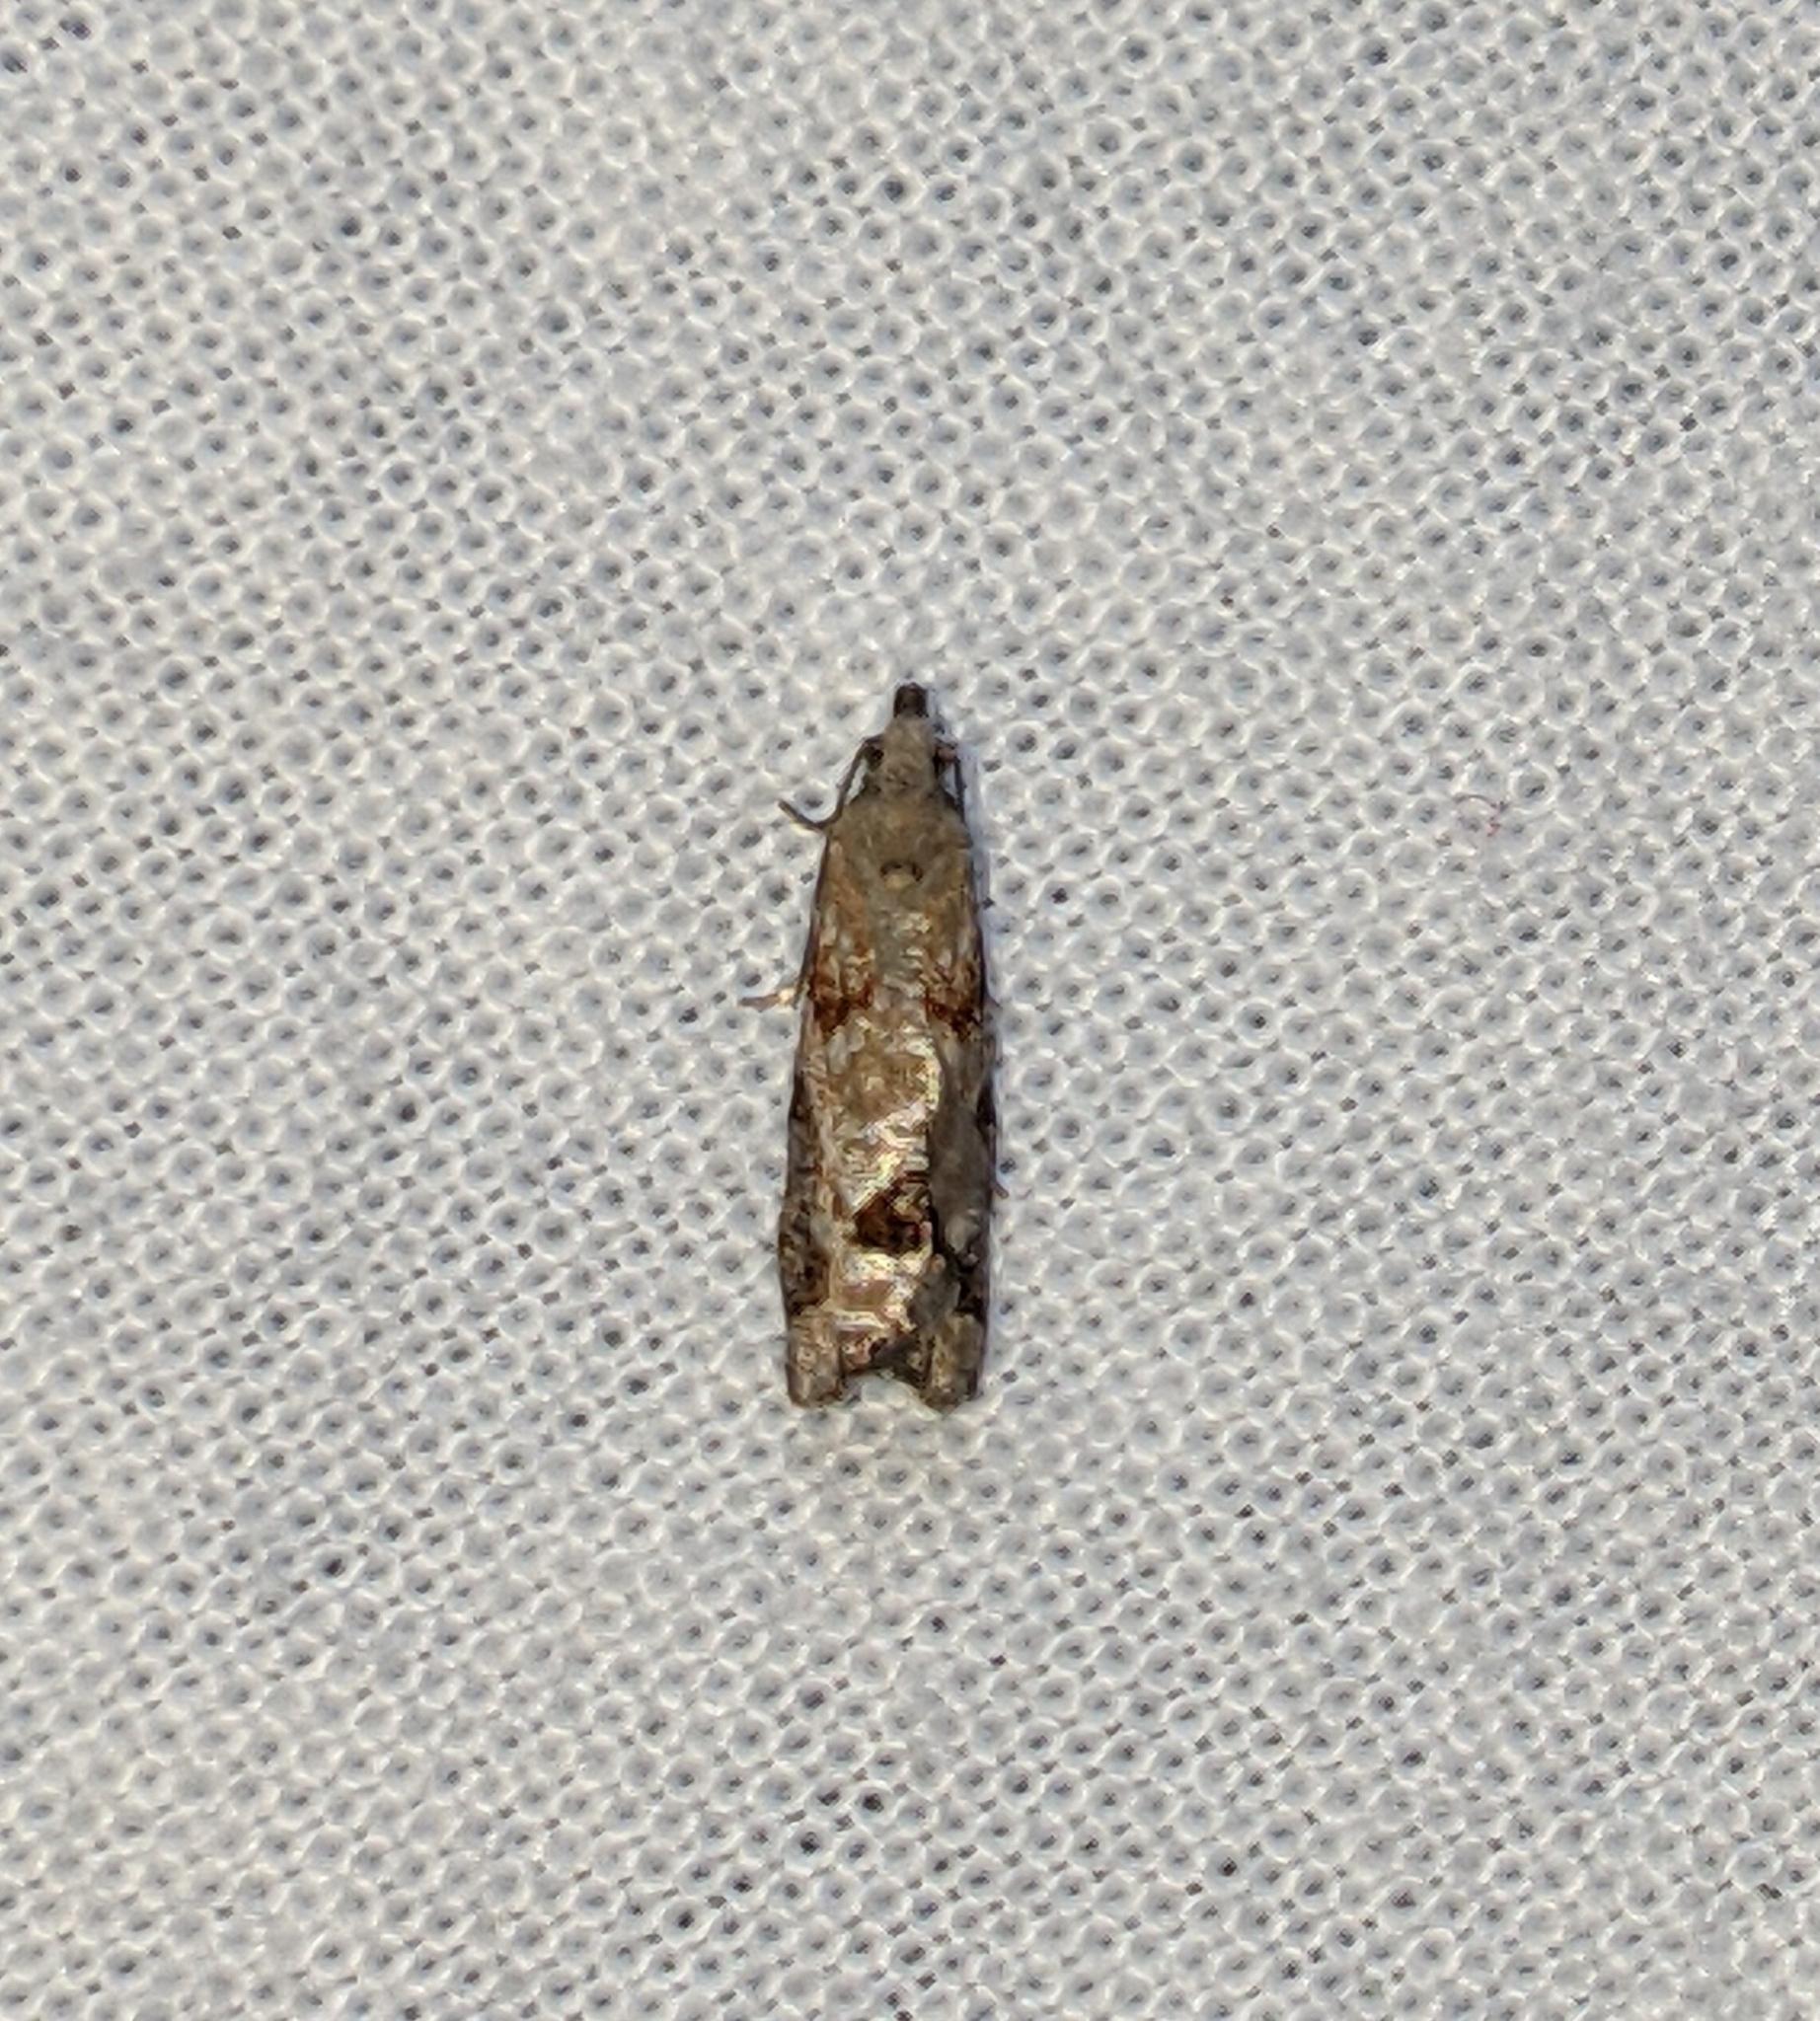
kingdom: Animalia
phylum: Arthropoda
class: Insecta
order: Lepidoptera
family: Tortricidae
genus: Epinotia
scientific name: Epinotia radicana
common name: Red-striped needleworm moth
